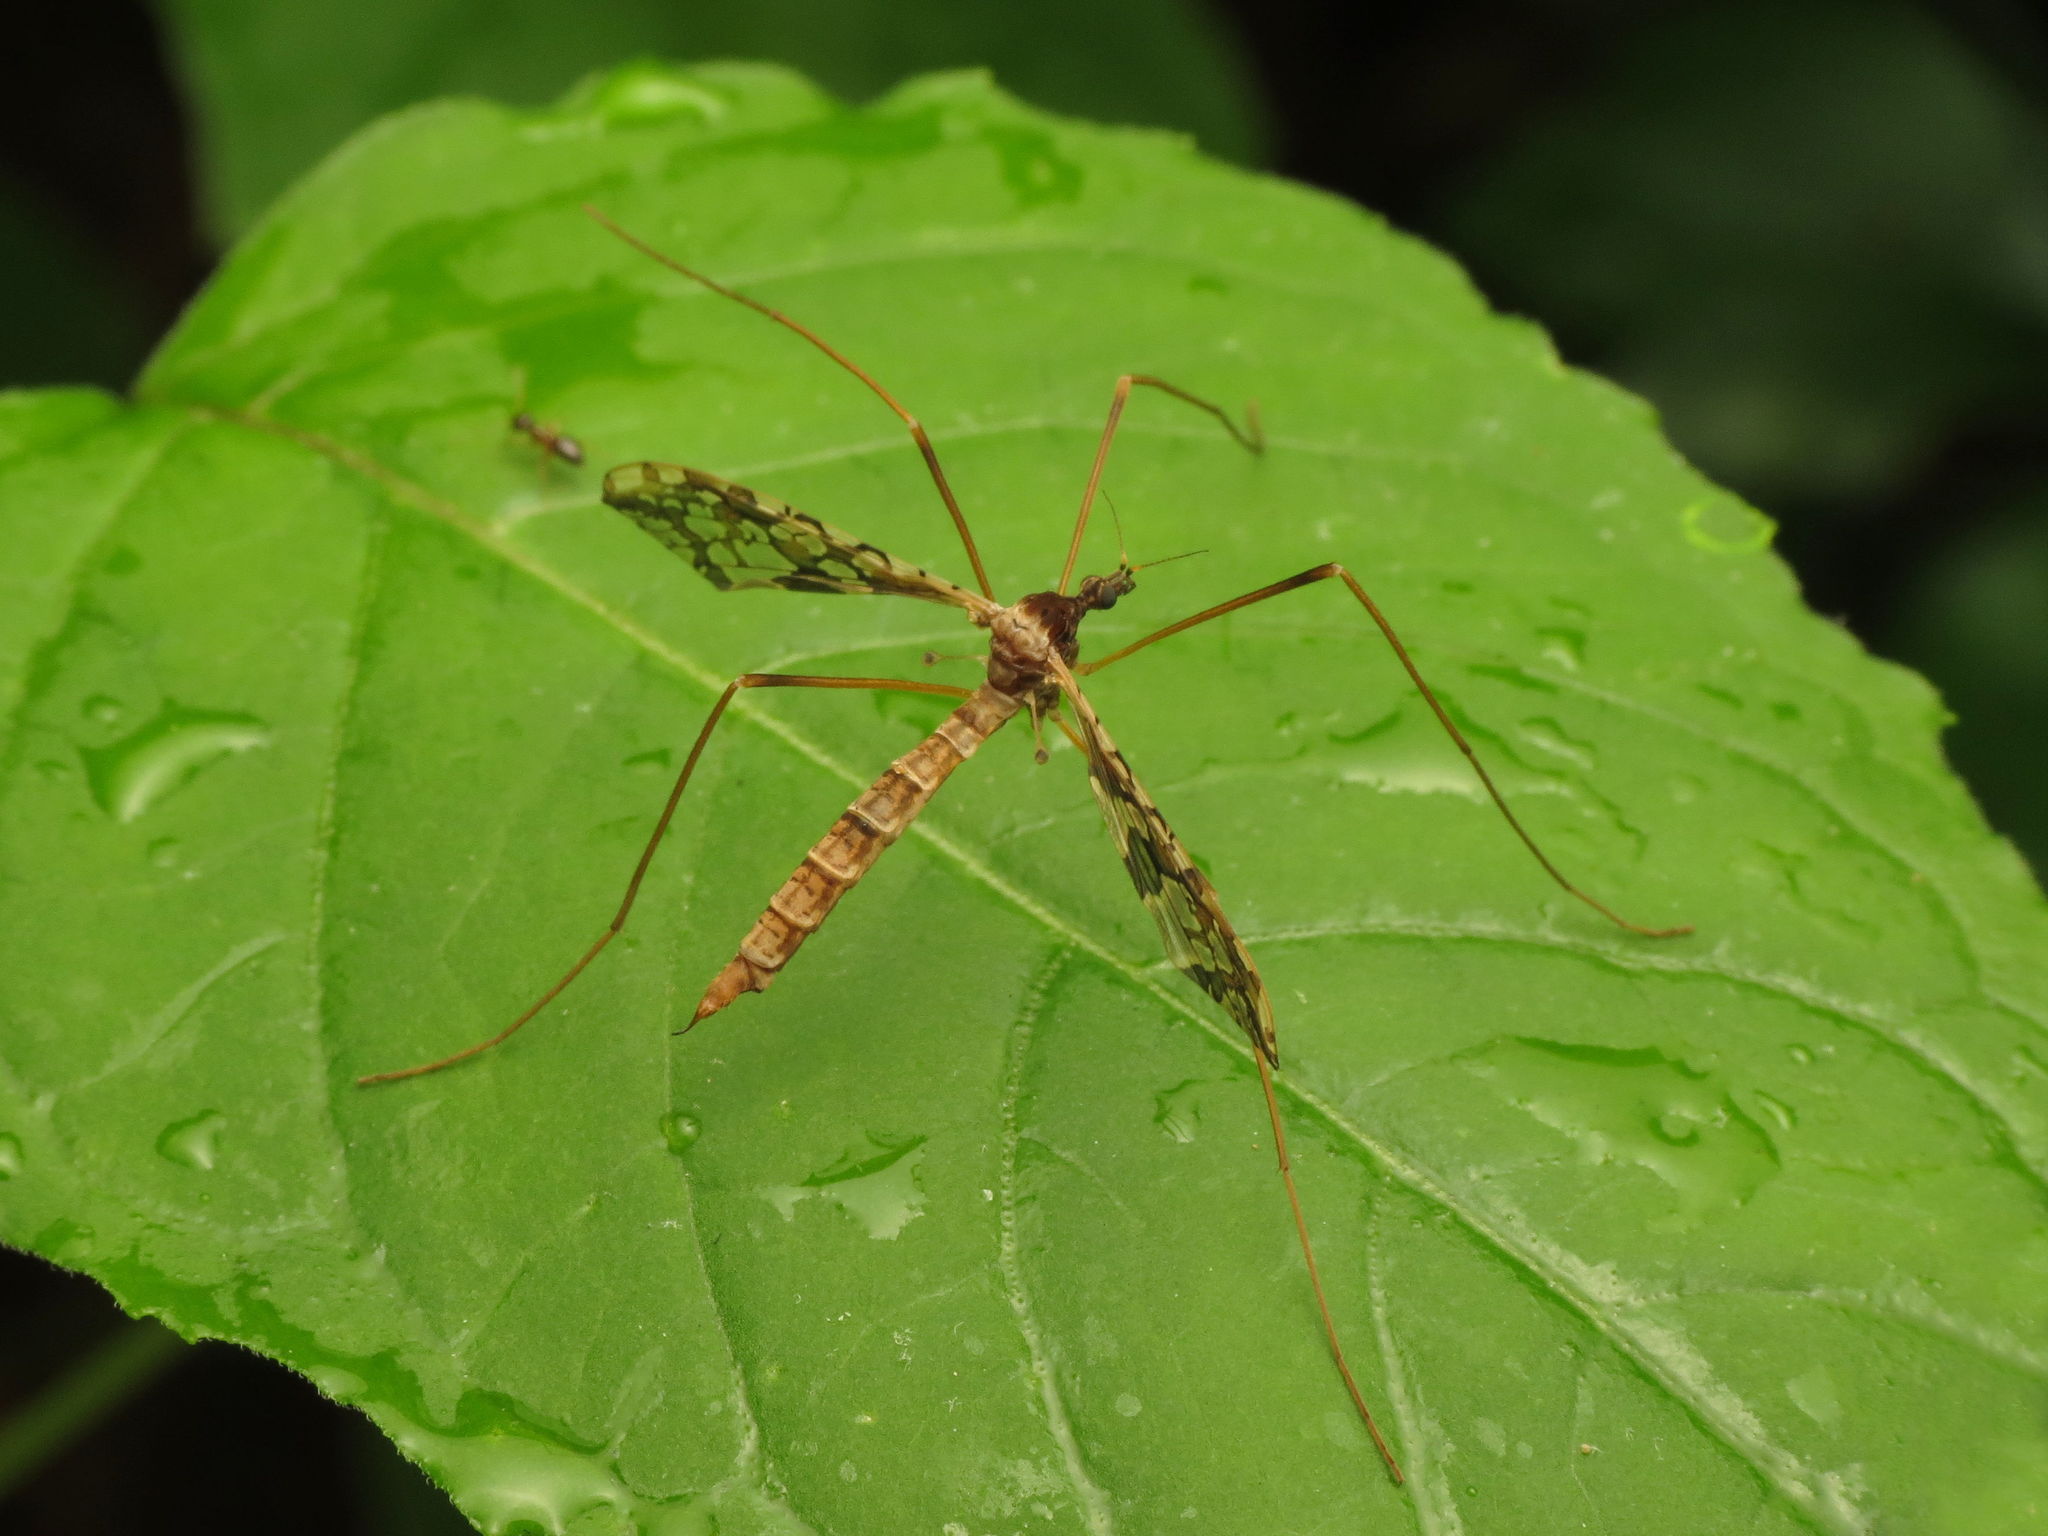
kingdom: Animalia
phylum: Arthropoda
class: Insecta
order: Diptera
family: Limoniidae
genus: Epiphragma
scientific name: Epiphragma solatrix
